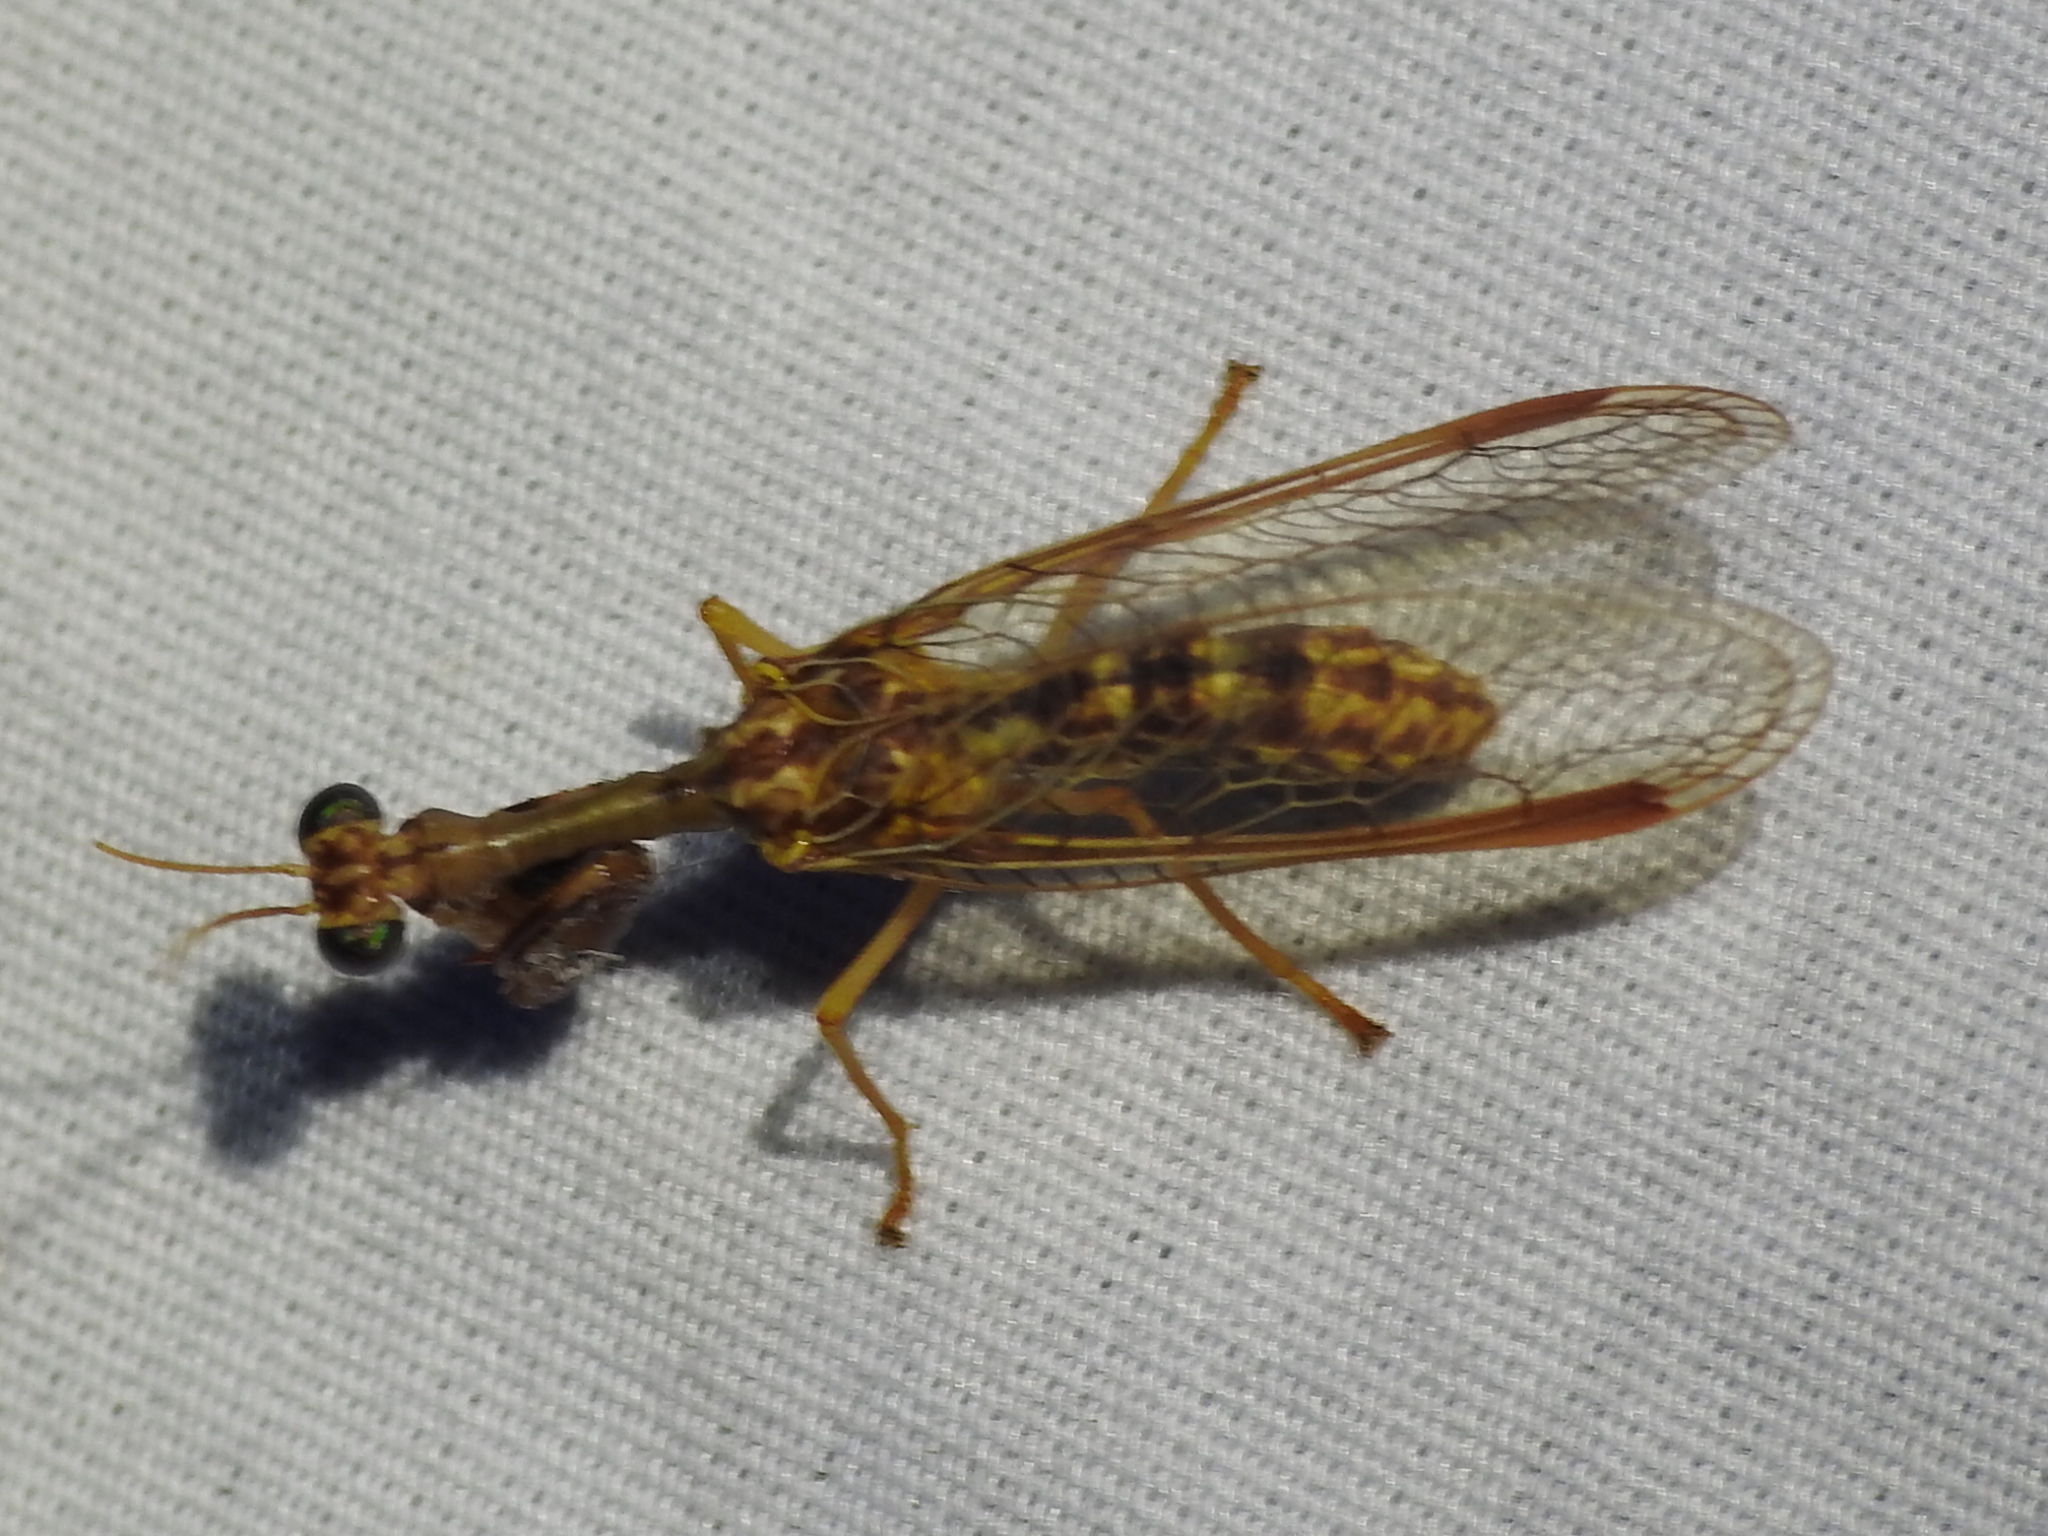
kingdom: Animalia
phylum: Arthropoda
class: Insecta
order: Neuroptera
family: Mantispidae
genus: Dicromantispa
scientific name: Dicromantispa sayi
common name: Say's mantidfly
